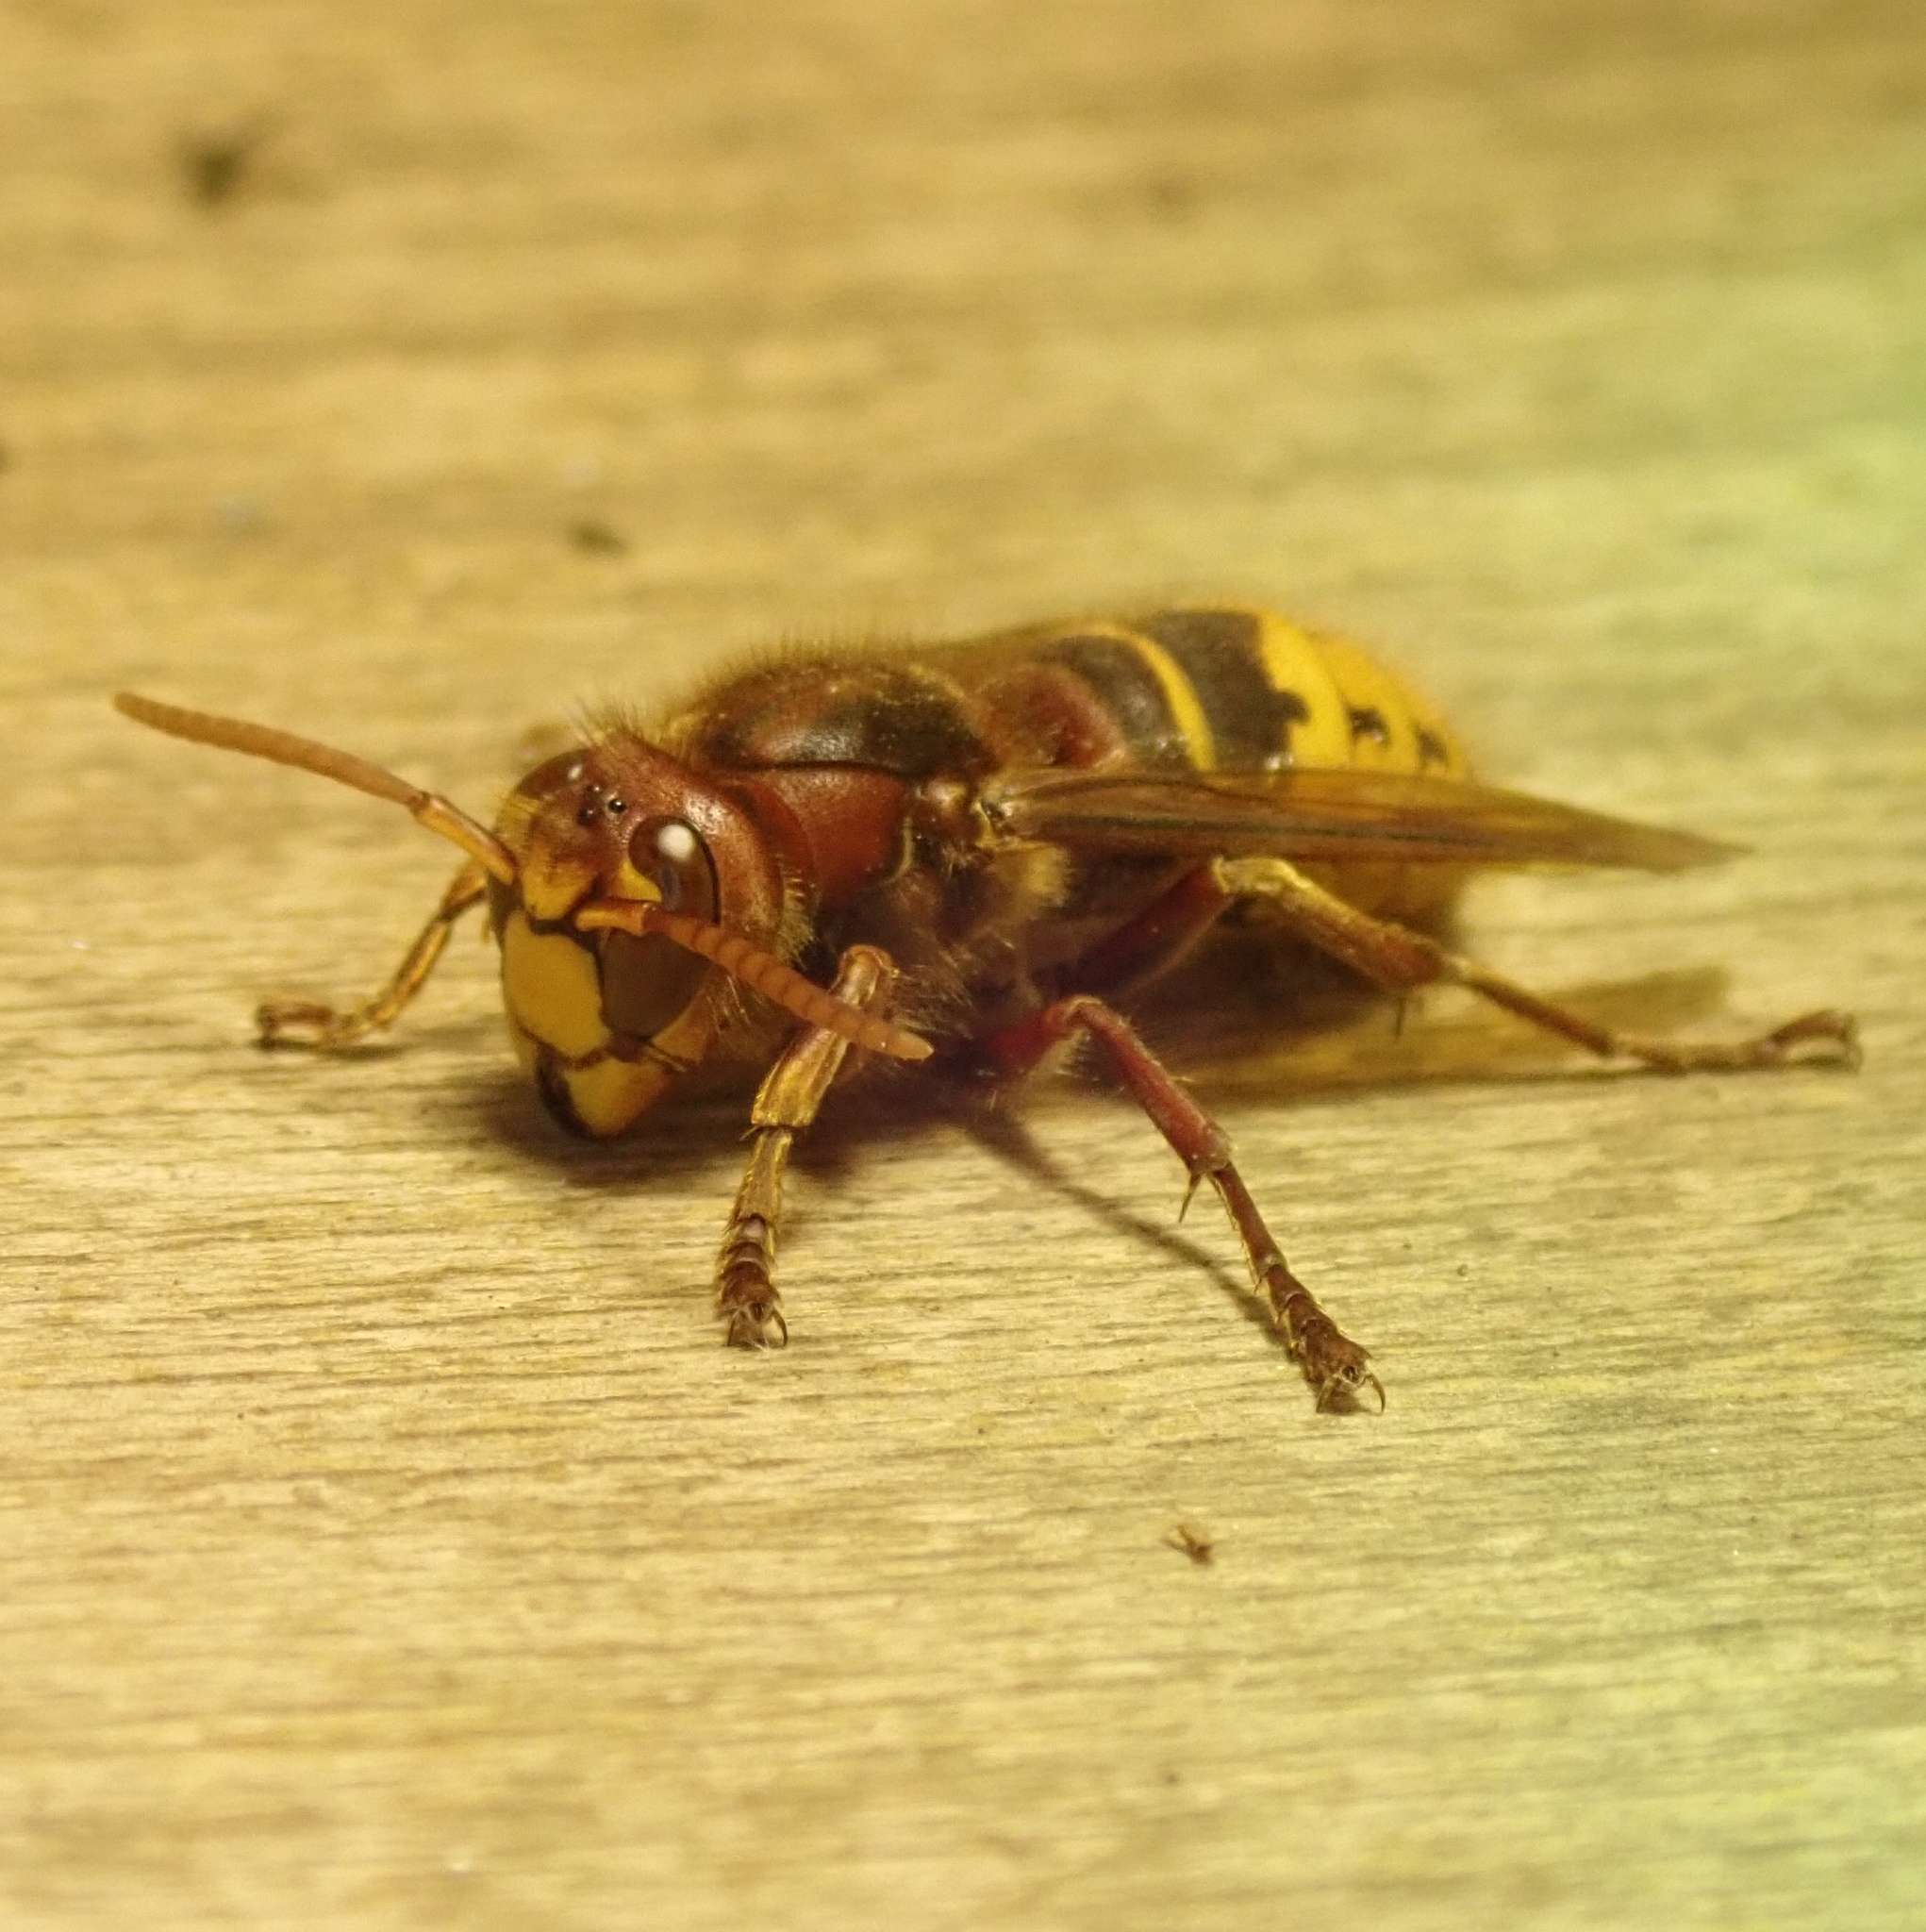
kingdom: Animalia
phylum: Arthropoda
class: Insecta
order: Hymenoptera
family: Vespidae
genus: Vespa
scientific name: Vespa crabro
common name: Hornet
